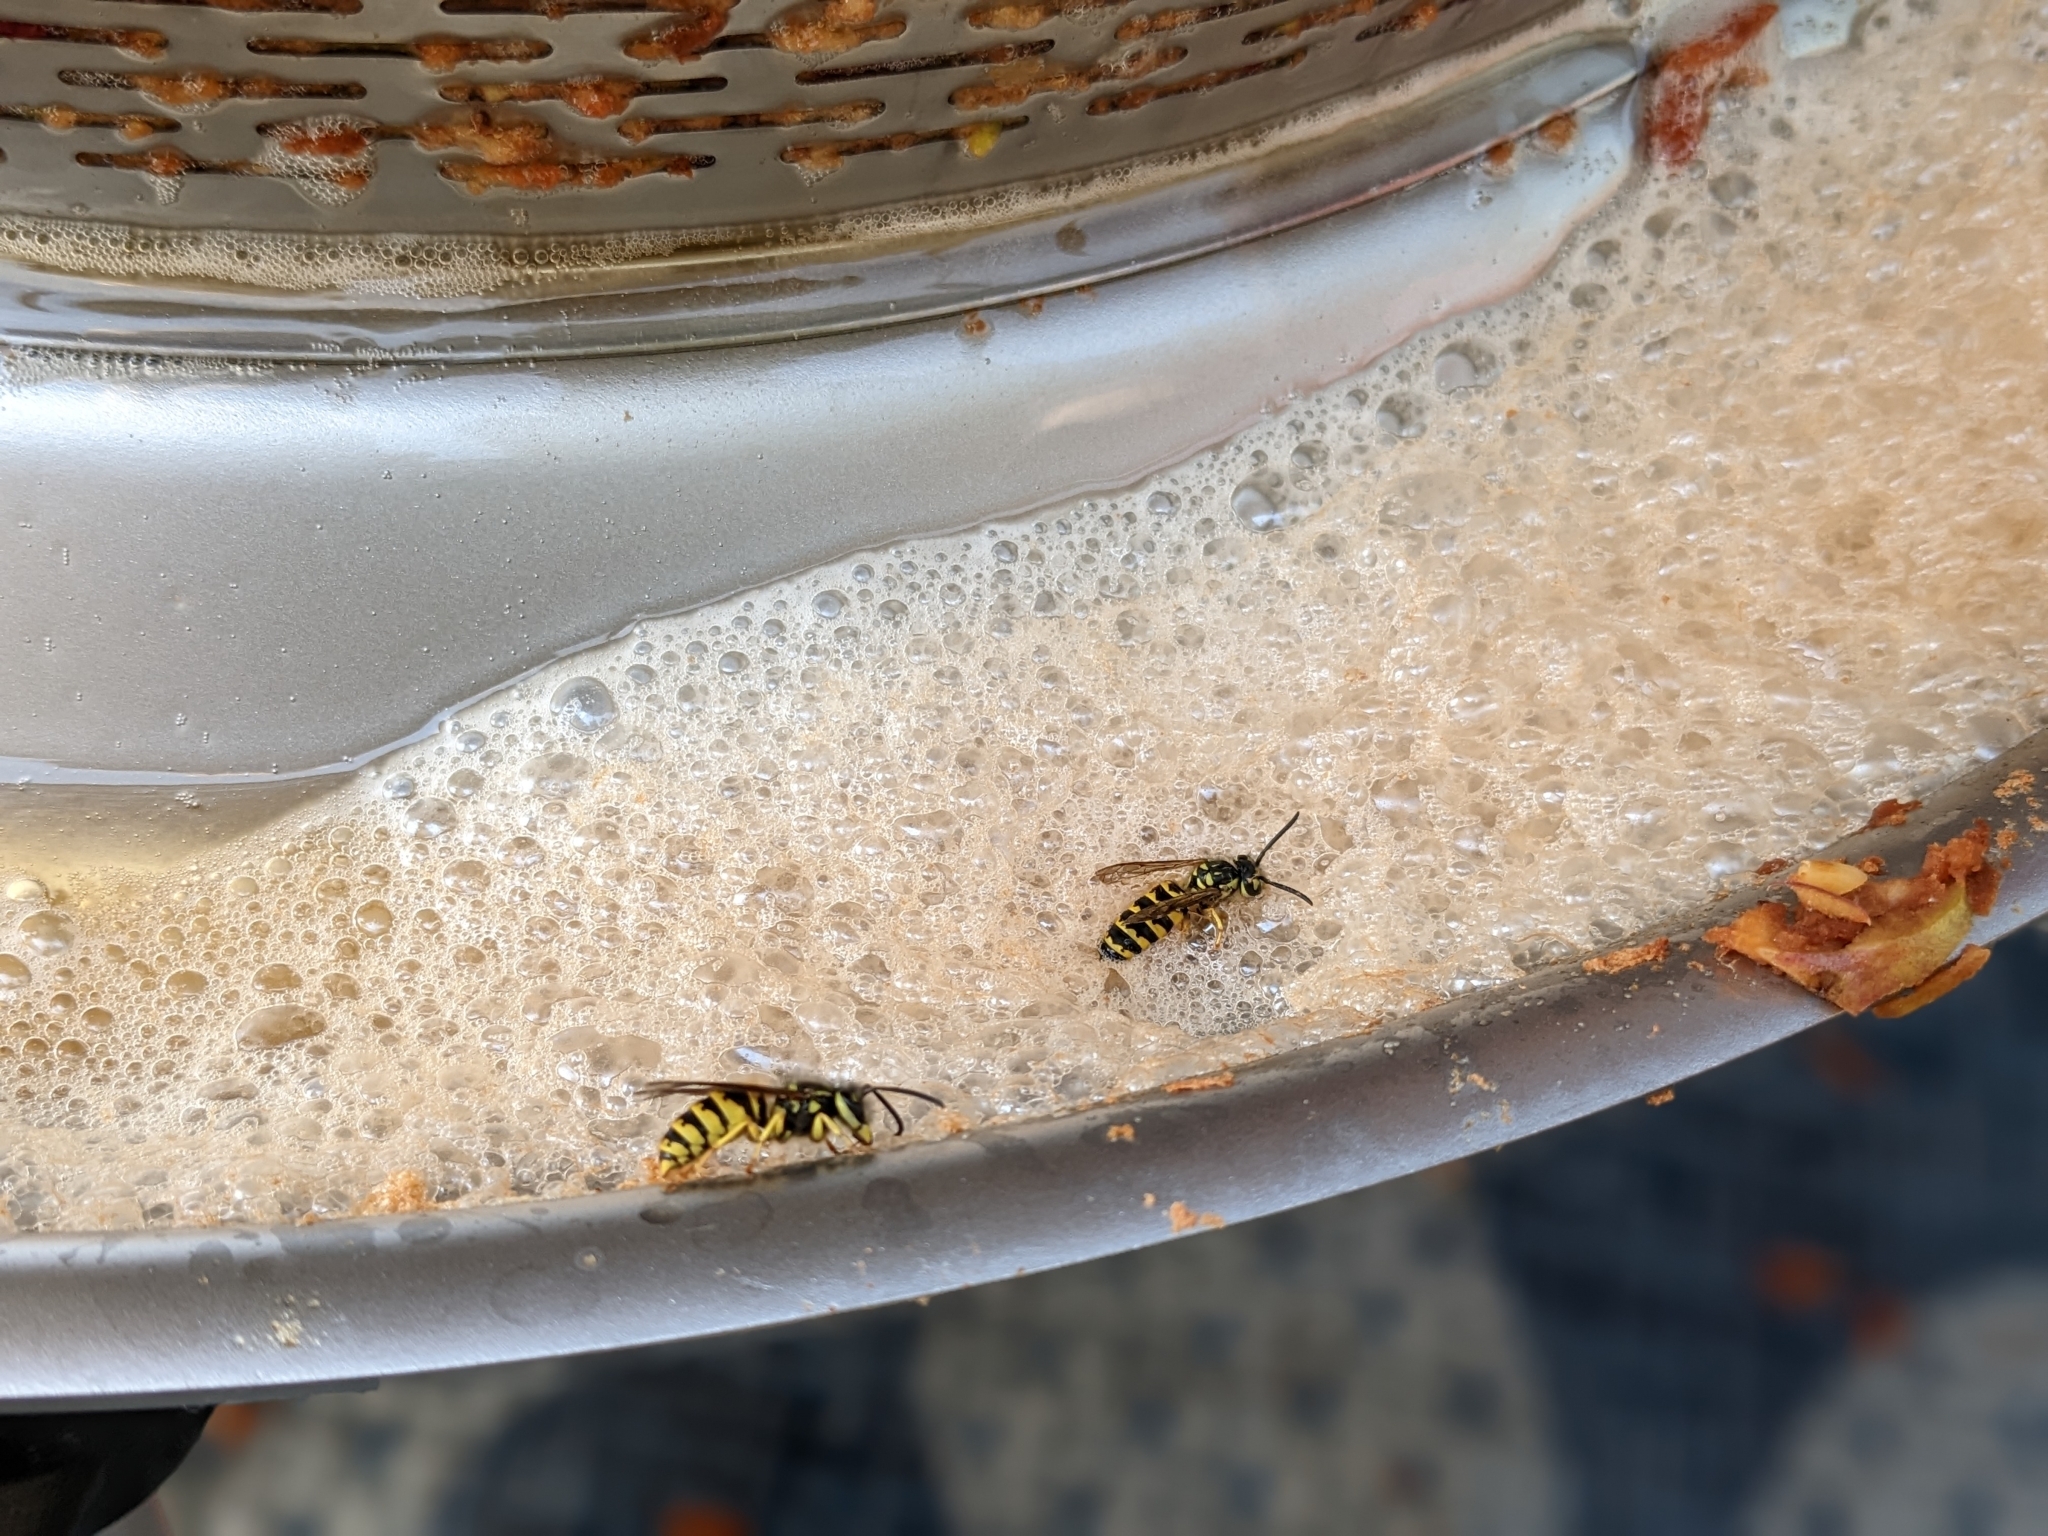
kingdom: Animalia
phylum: Arthropoda
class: Insecta
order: Hymenoptera
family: Vespidae
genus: Vespula
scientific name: Vespula flavopilosa
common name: Downy yellowjacket
